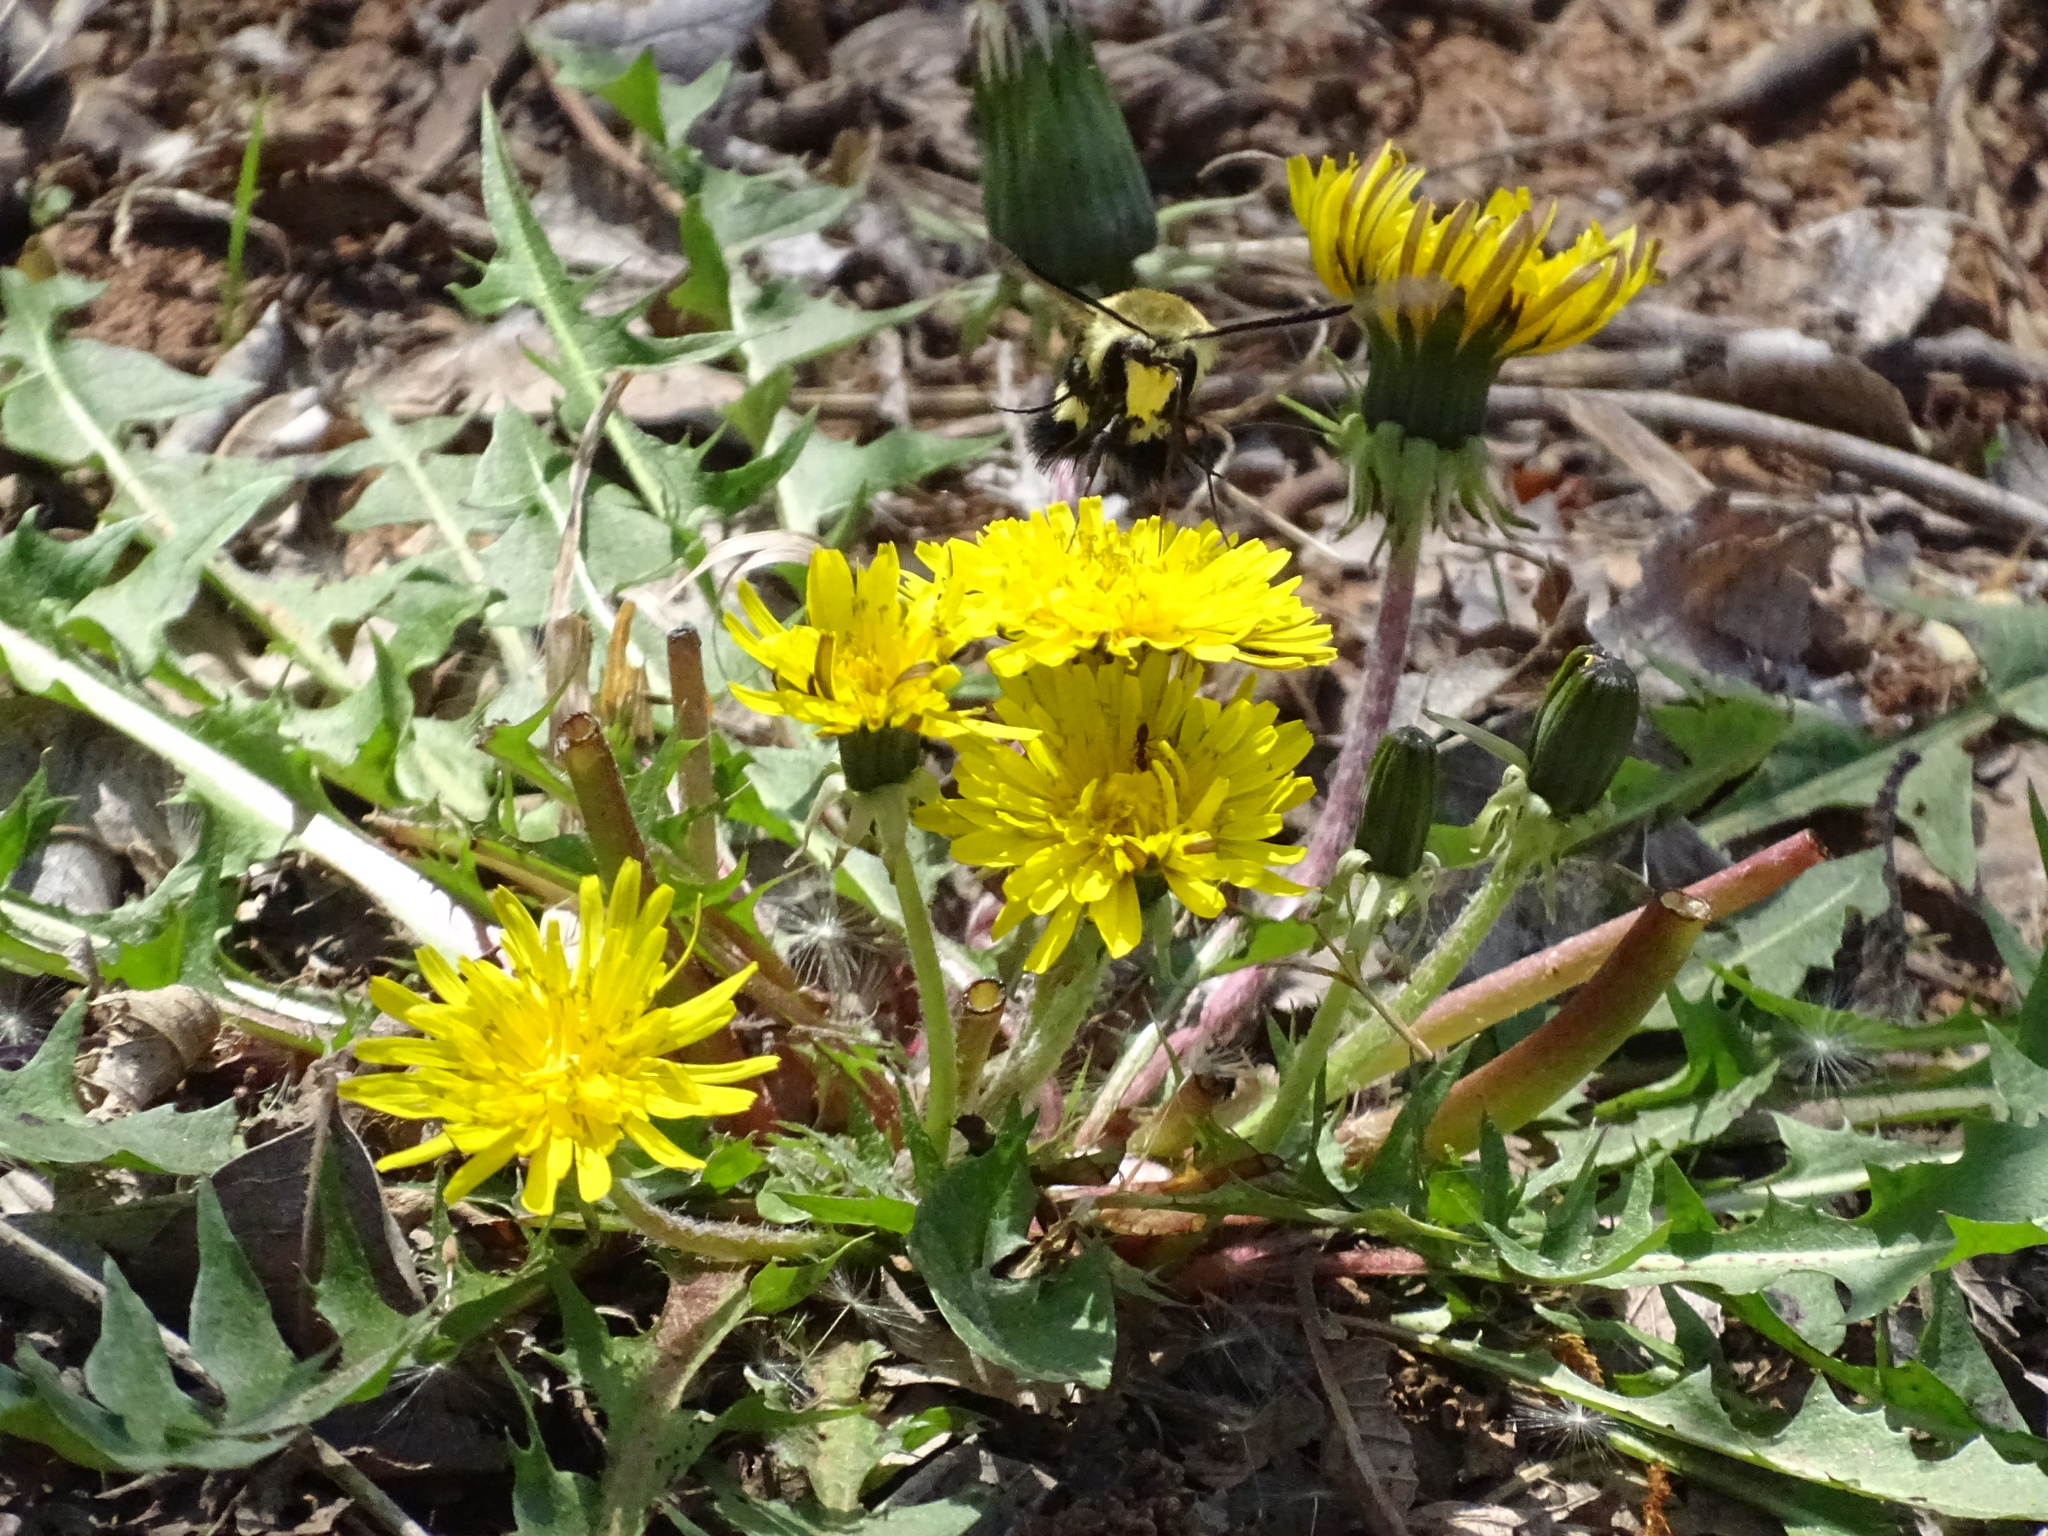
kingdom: Animalia
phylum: Arthropoda
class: Insecta
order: Lepidoptera
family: Sphingidae
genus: Hemaris
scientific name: Hemaris diffinis
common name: Bumblebee moth
